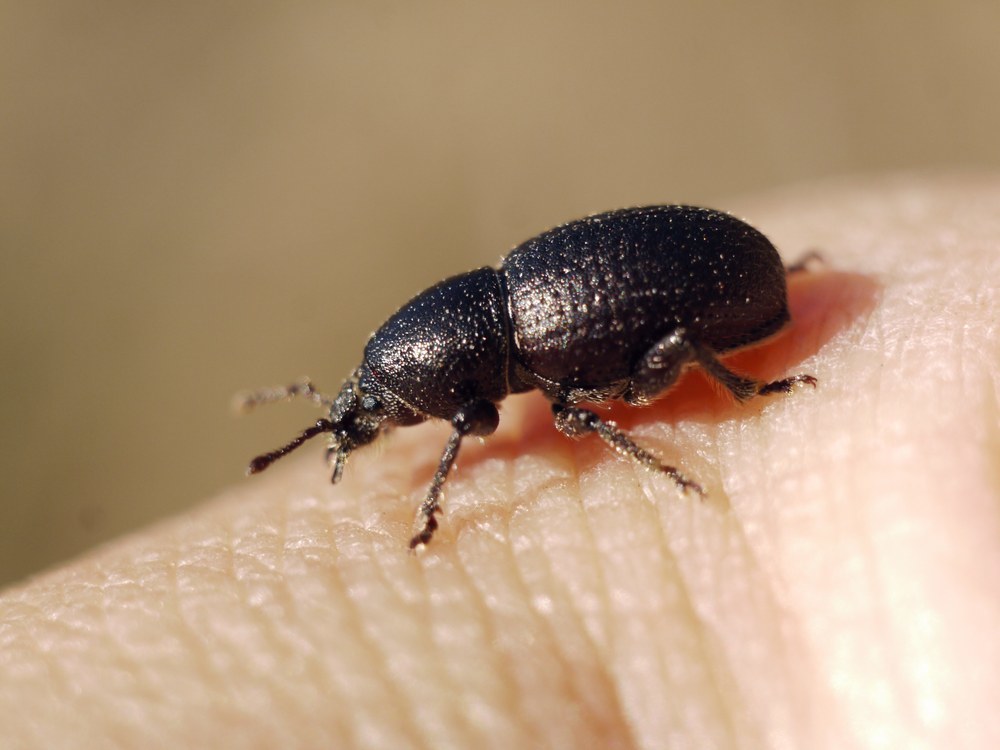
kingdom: Animalia
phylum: Arthropoda
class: Insecta
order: Coleoptera
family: Curculionidae
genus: Psallidium
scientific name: Psallidium maxillosum
